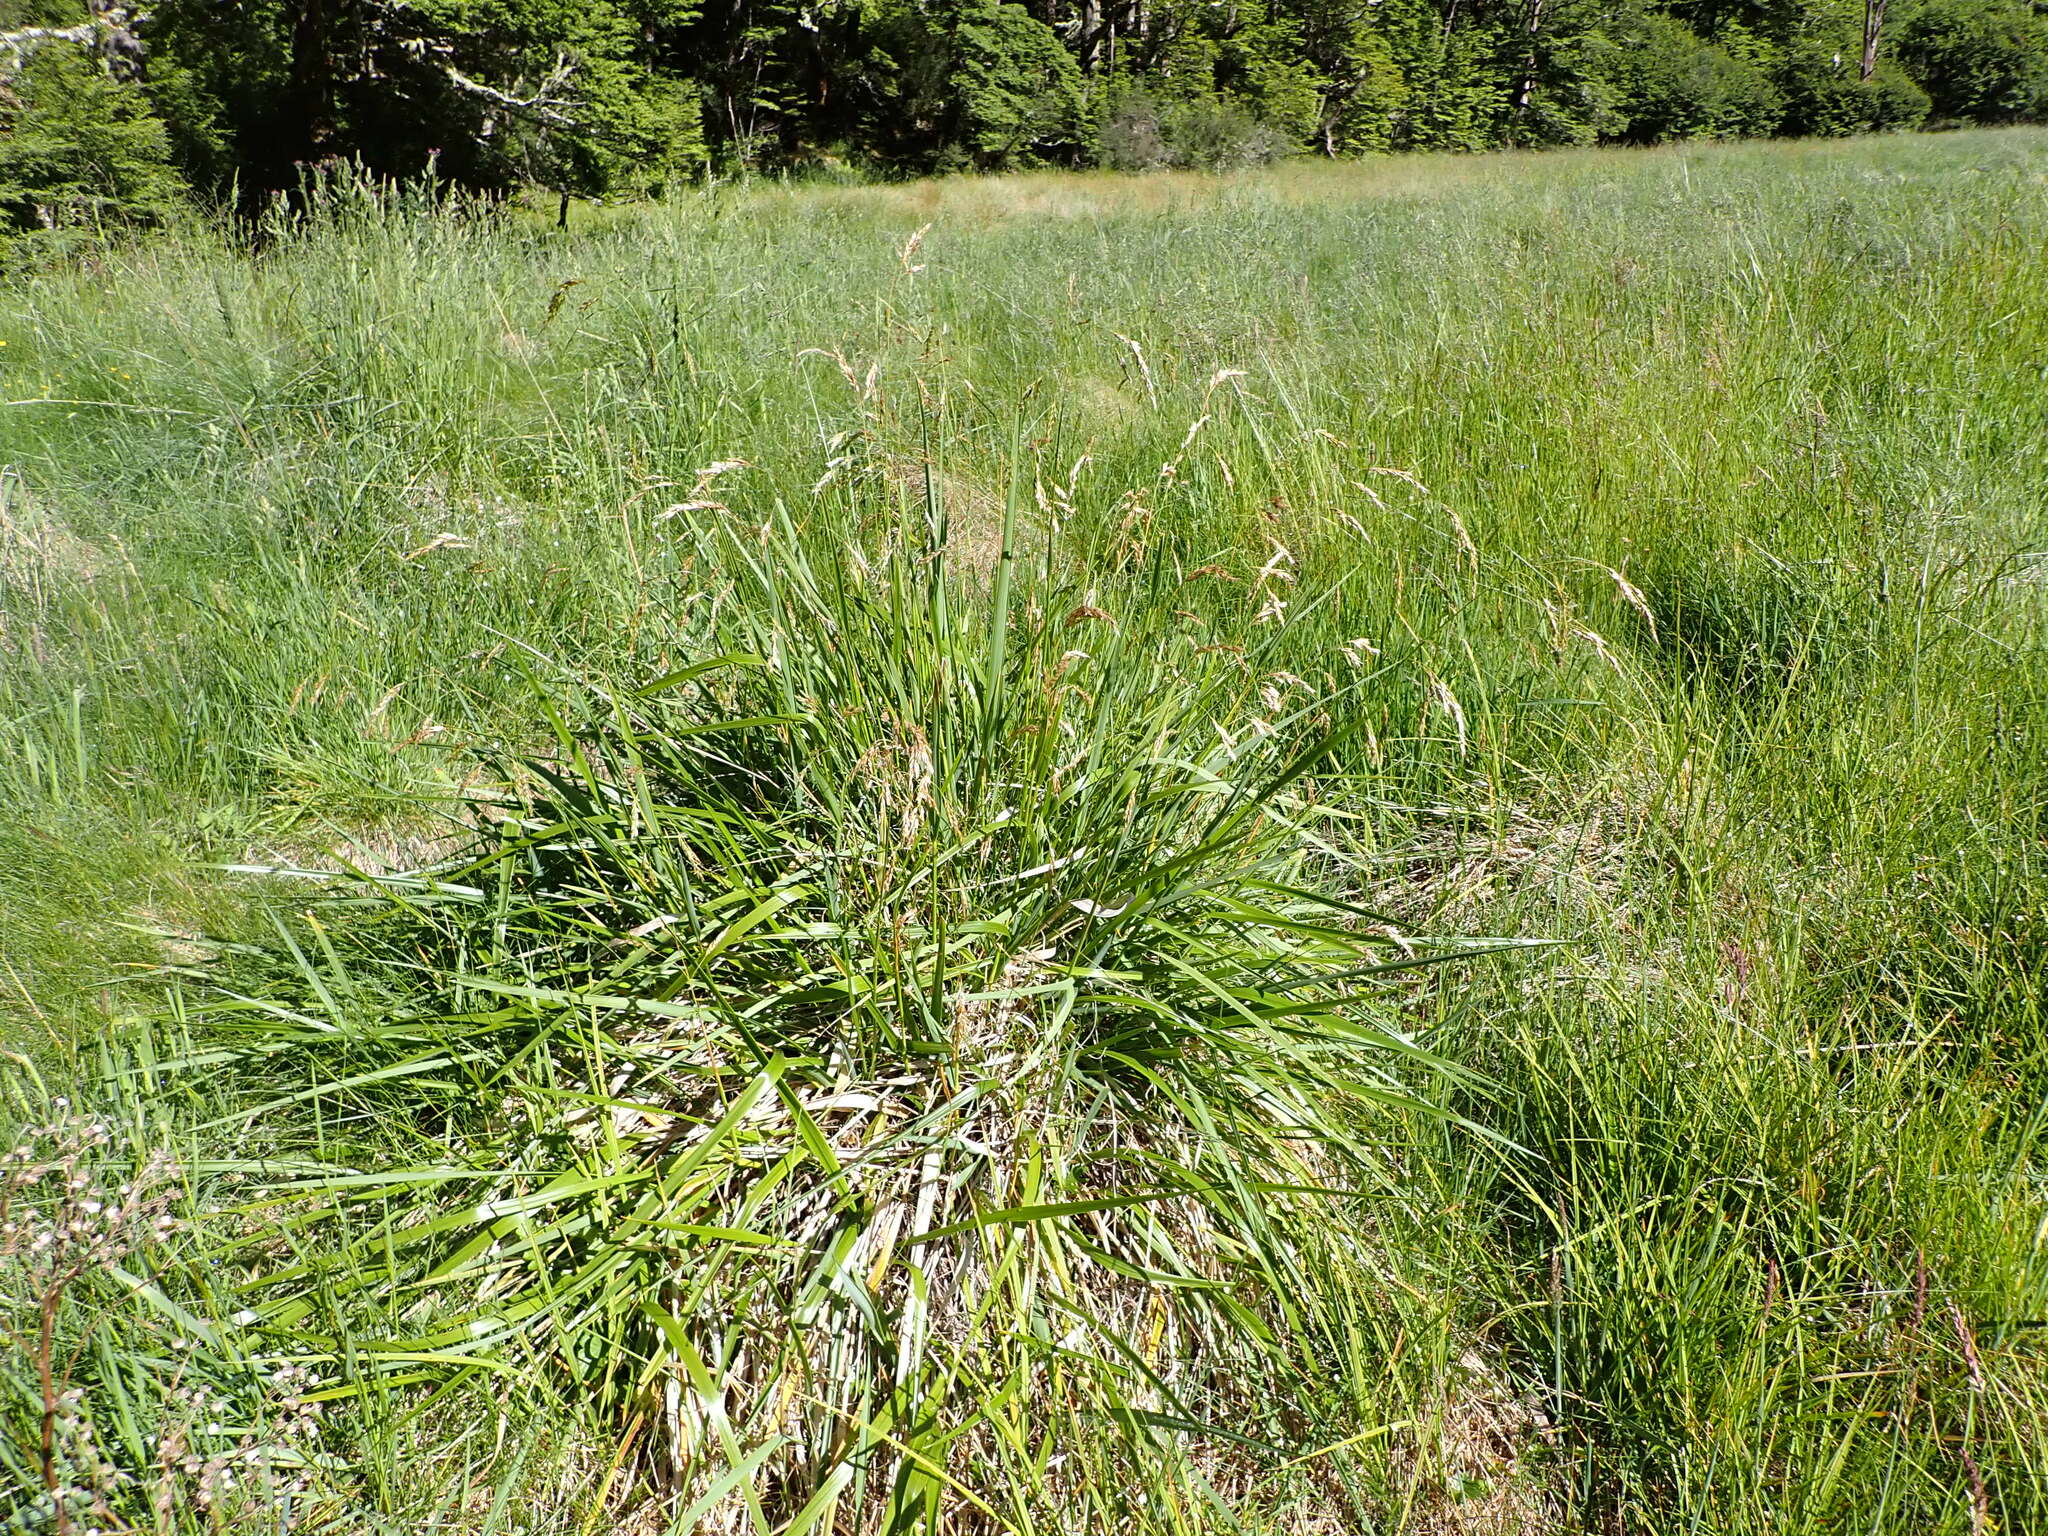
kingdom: Plantae
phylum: Tracheophyta
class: Liliopsida
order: Poales
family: Poaceae
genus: Anthoxanthum
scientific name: Anthoxanthum redolens
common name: Sweet holy grass
